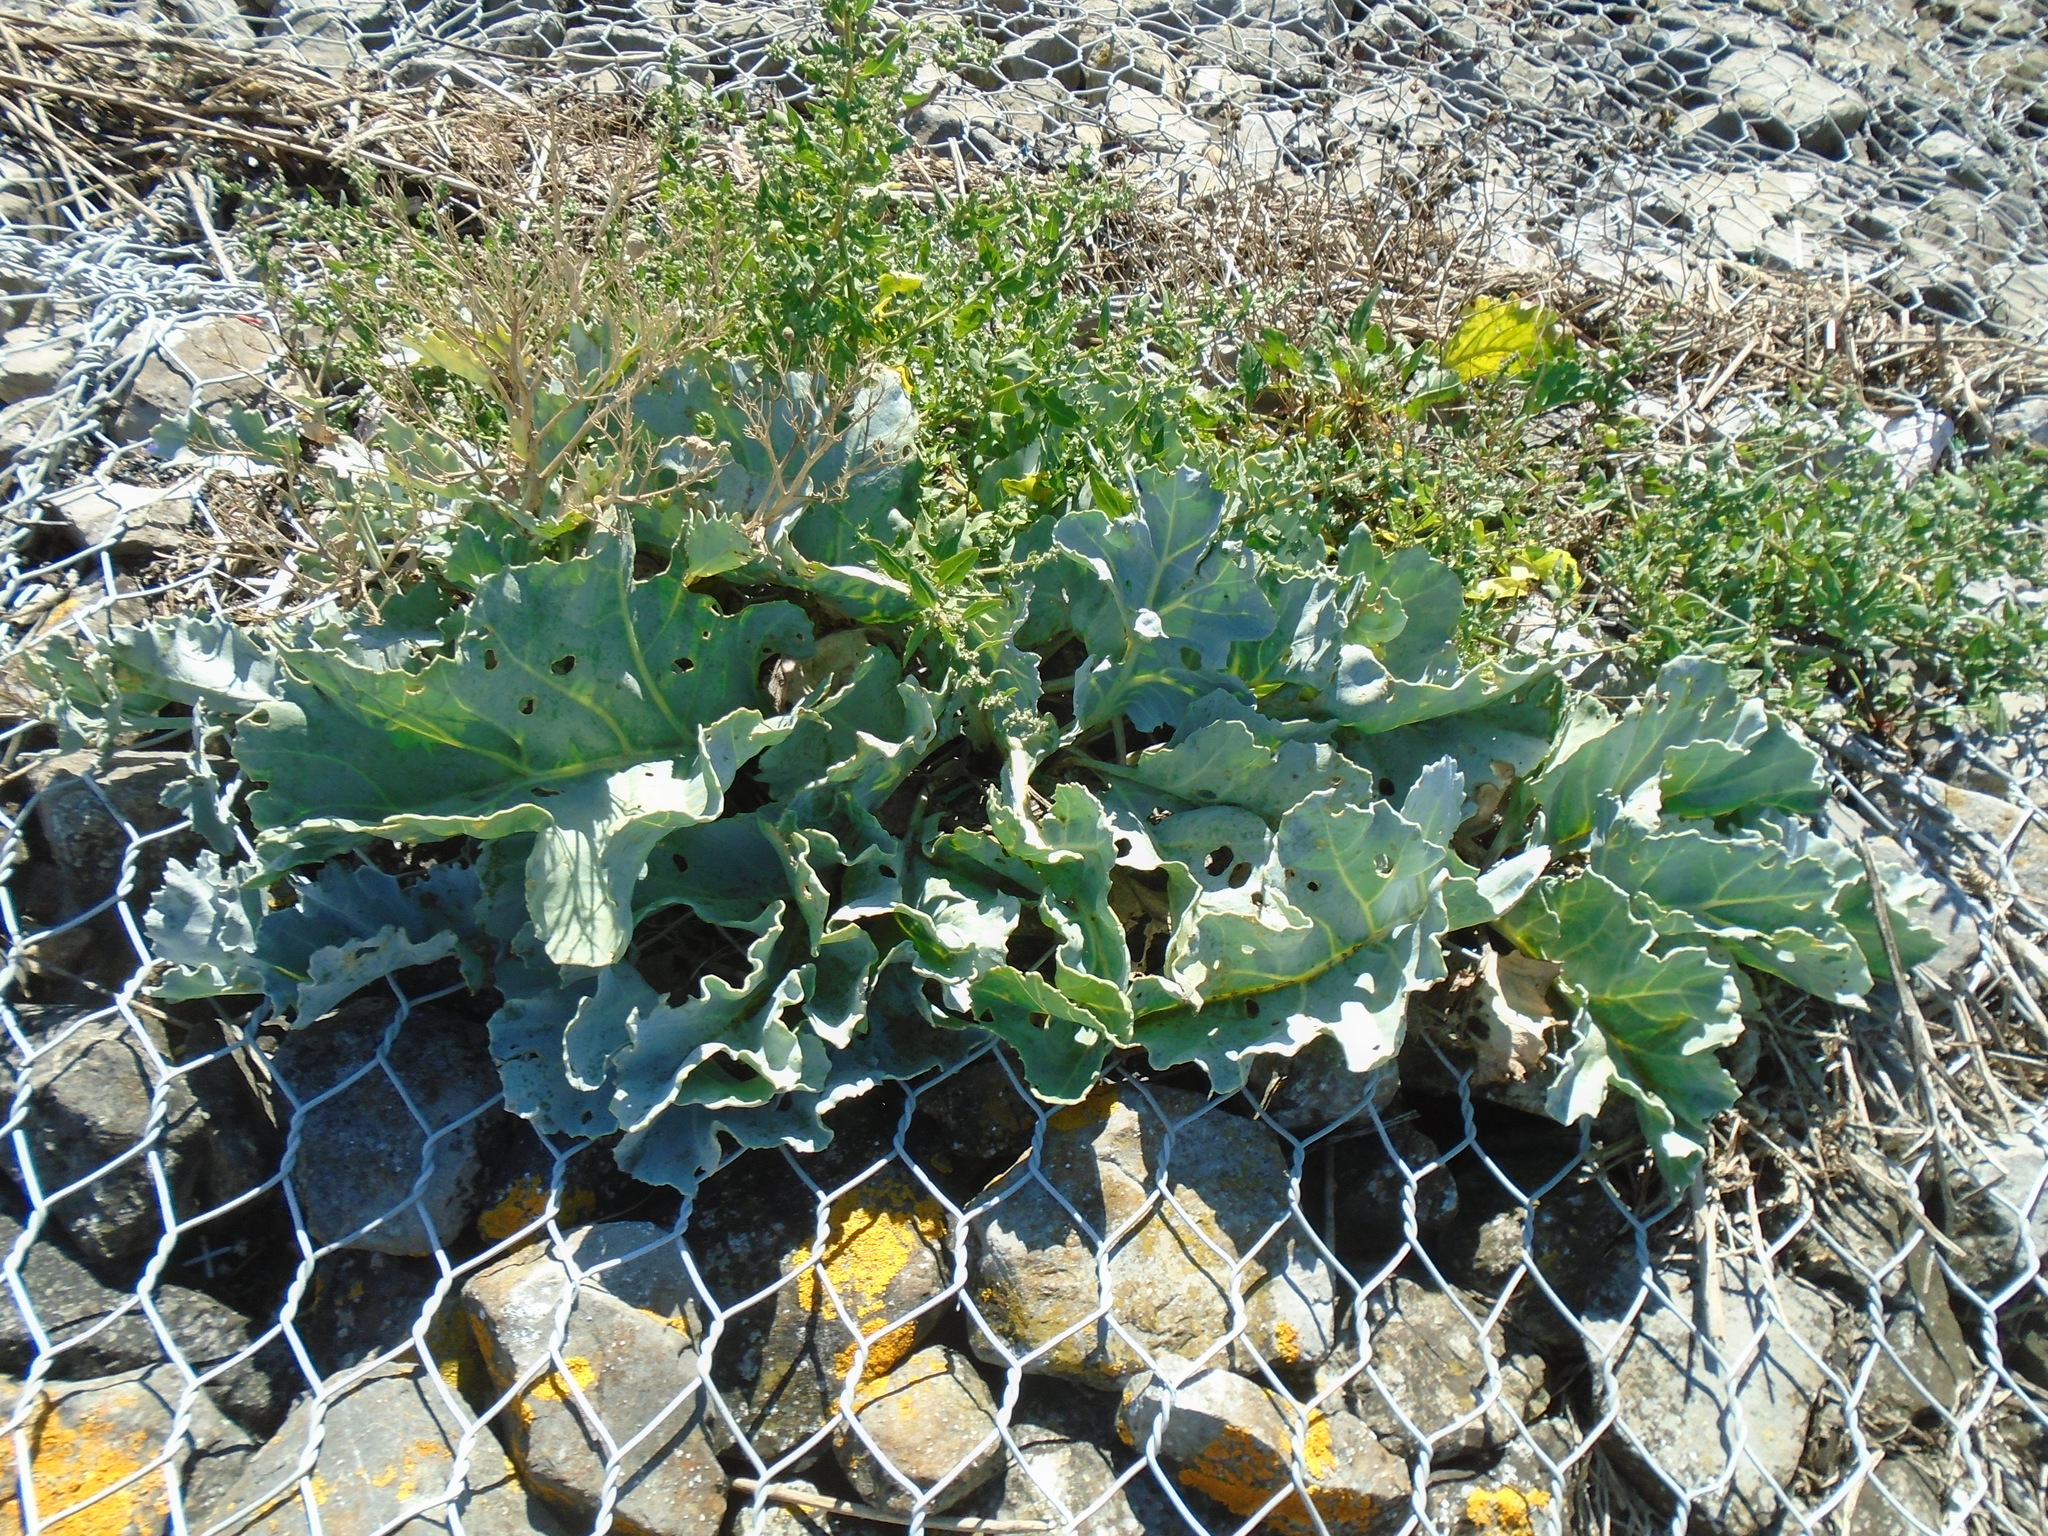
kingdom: Plantae
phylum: Tracheophyta
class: Magnoliopsida
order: Brassicales
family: Brassicaceae
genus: Crambe
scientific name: Crambe maritima
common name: Sea-kale
